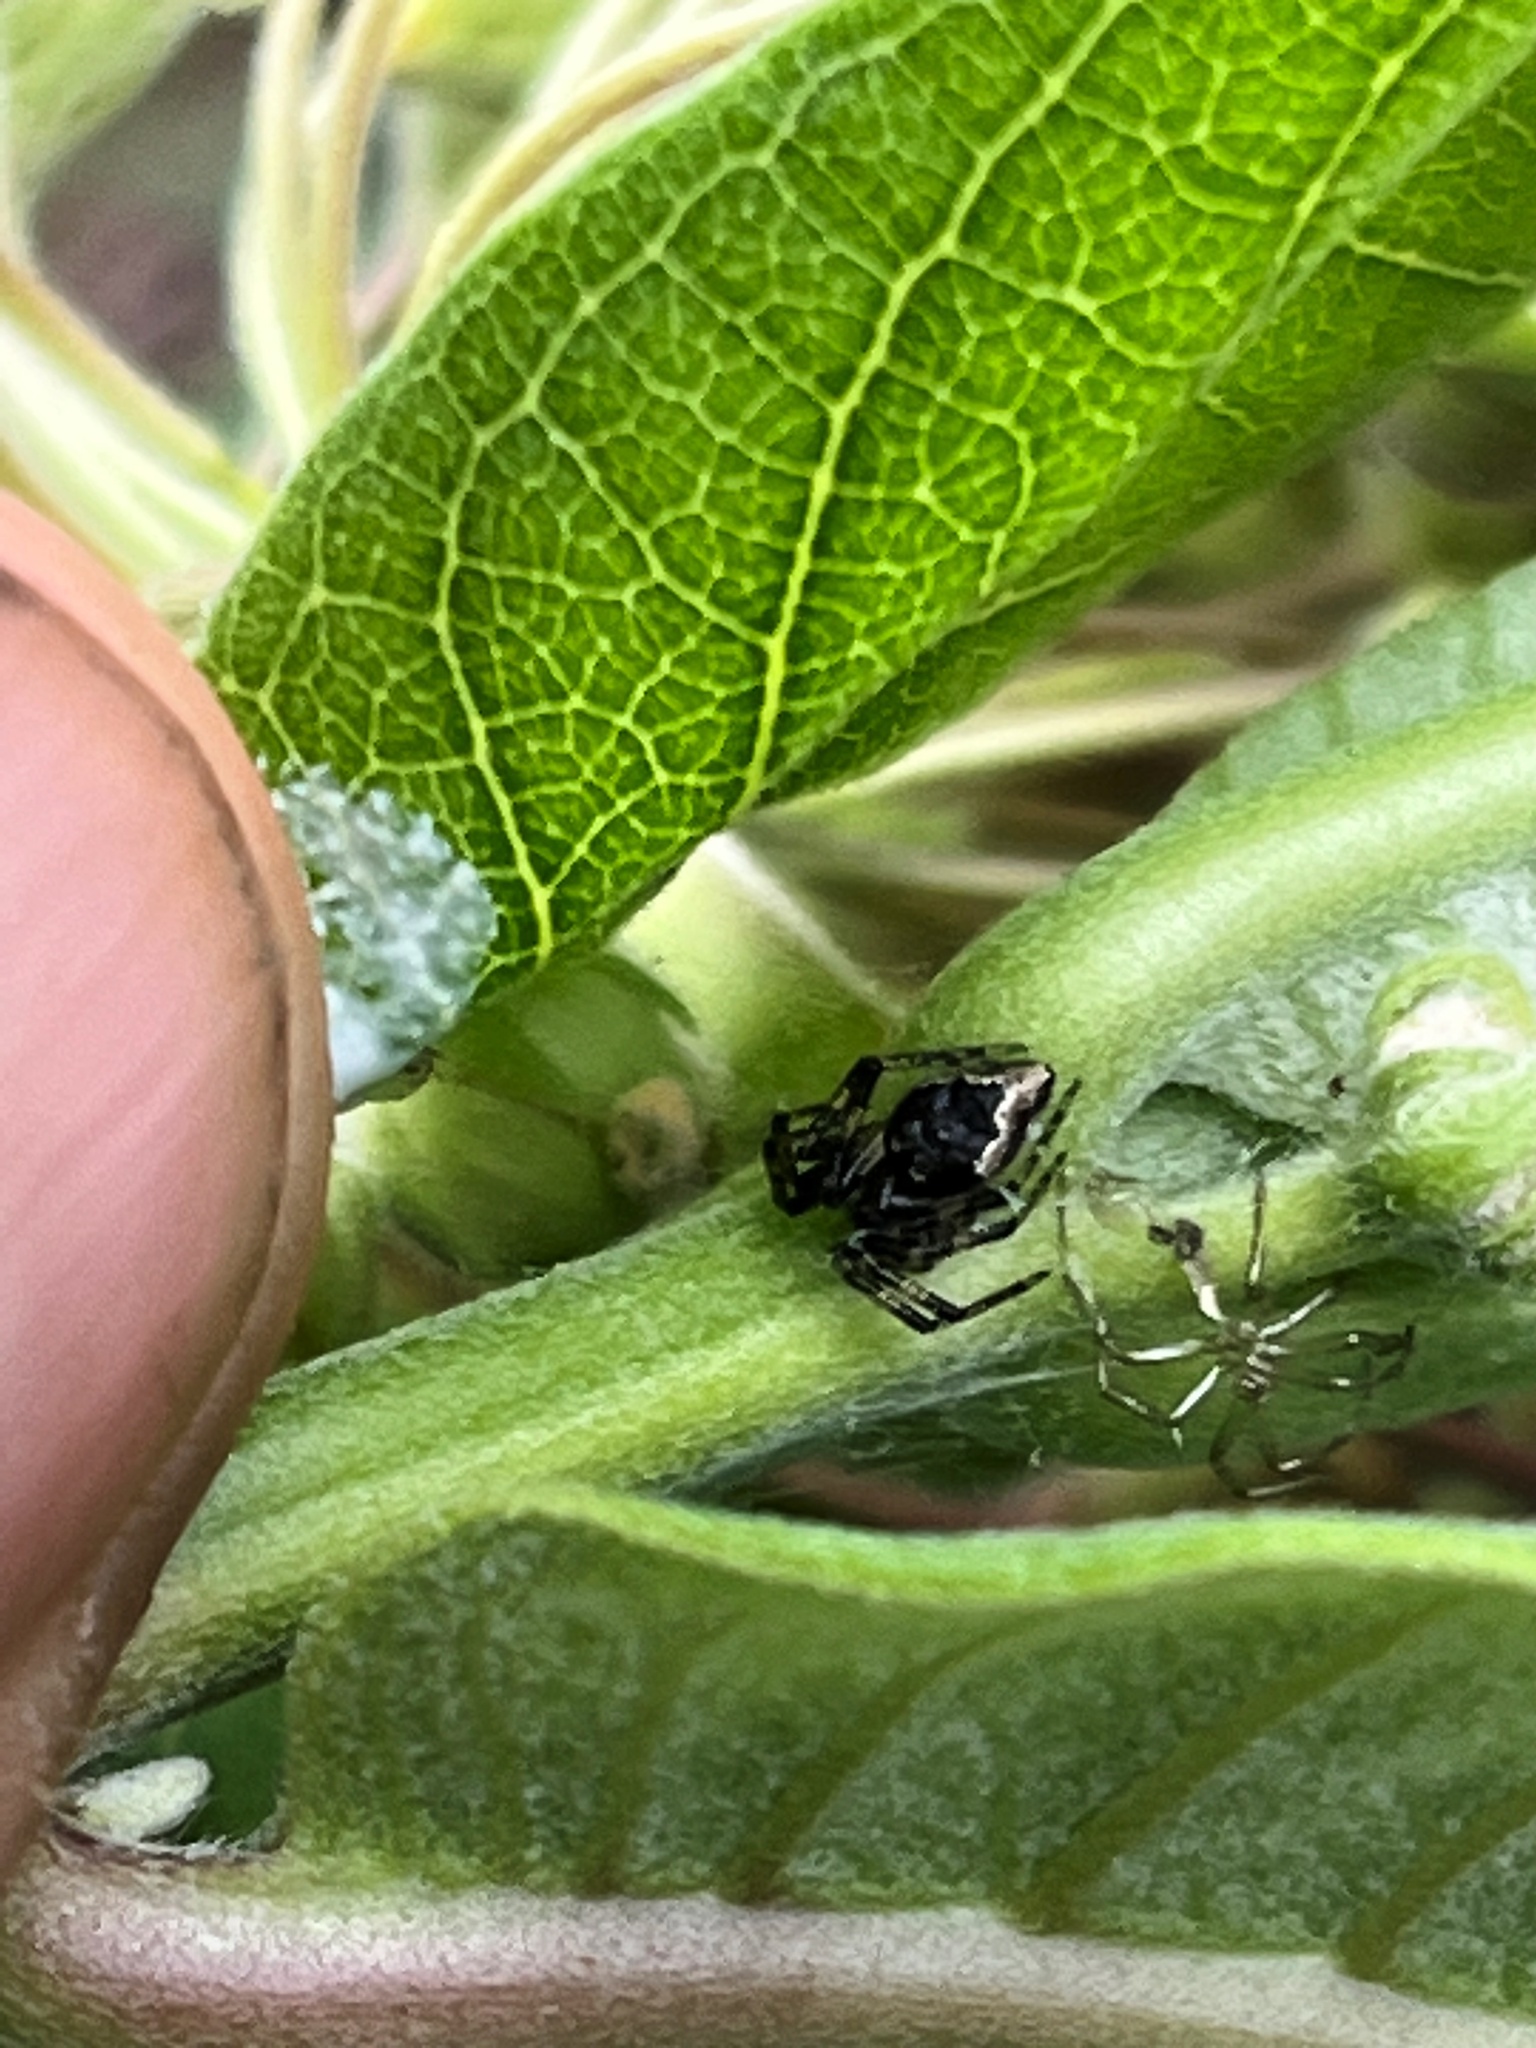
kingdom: Animalia
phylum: Arthropoda
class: Arachnida
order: Araneae
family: Theridiidae
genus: Euryopis
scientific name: Euryopis funebris
